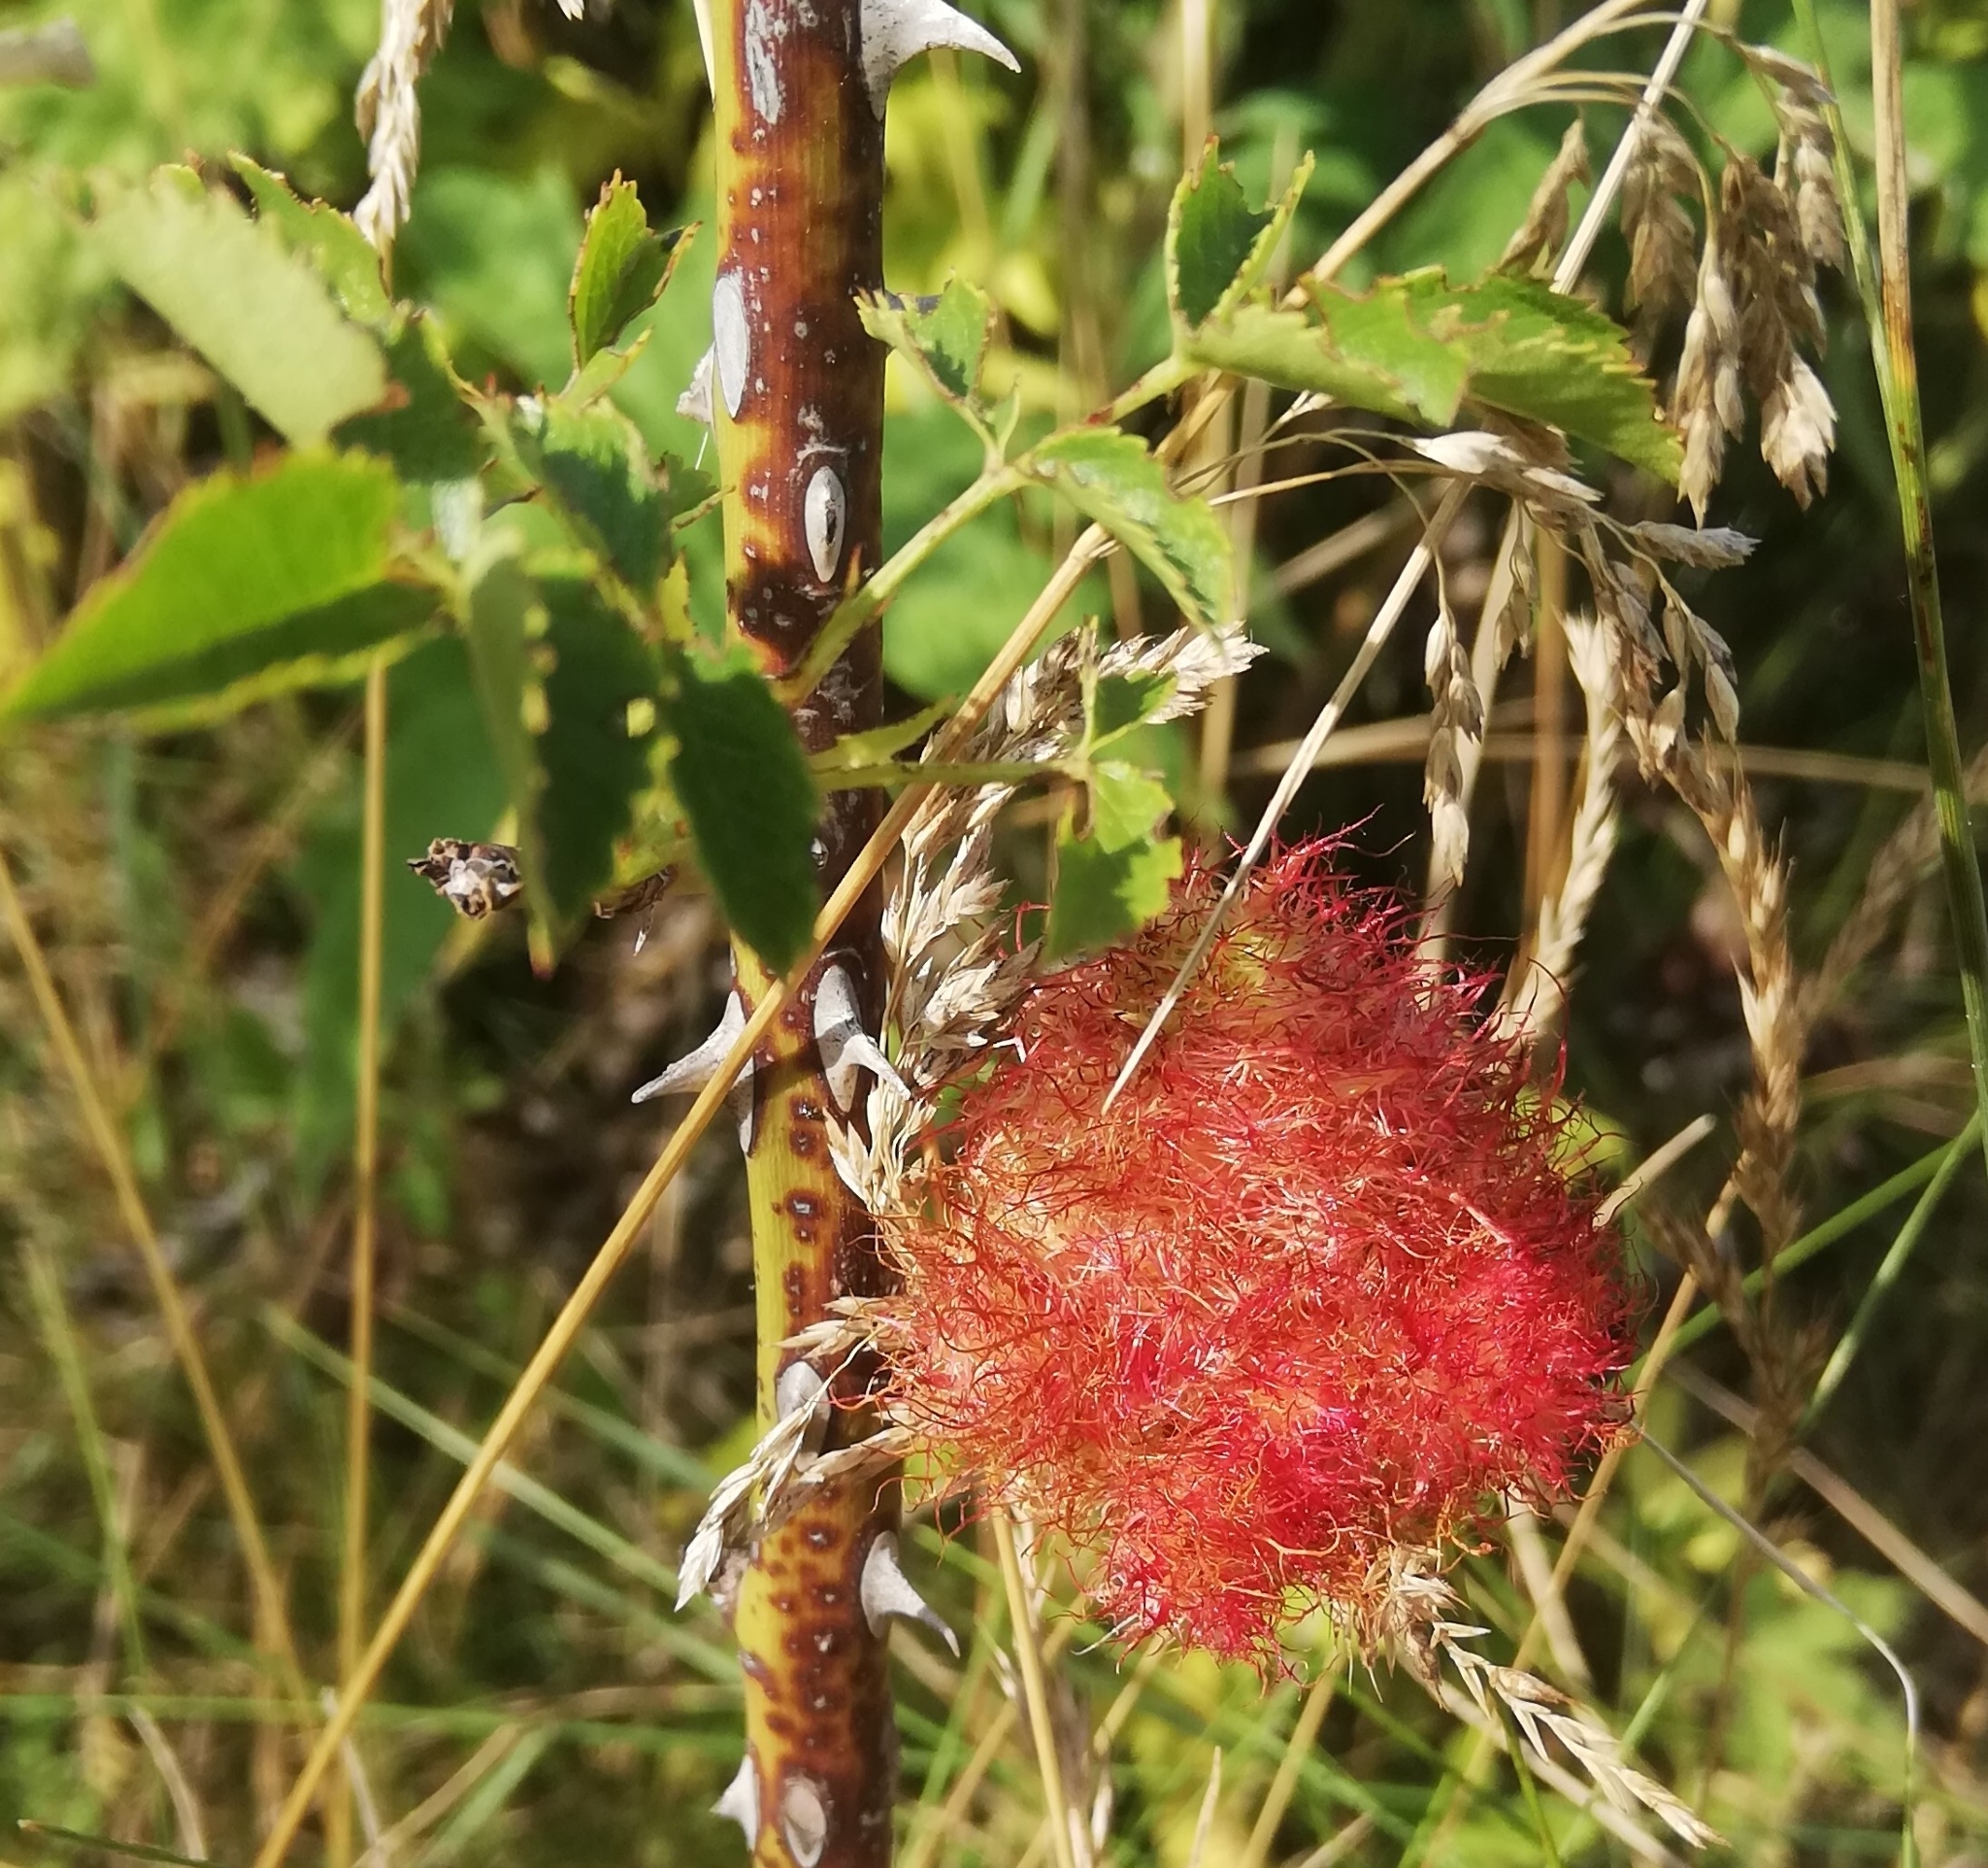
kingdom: Animalia
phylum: Arthropoda
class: Insecta
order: Hymenoptera
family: Cynipidae
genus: Diplolepis
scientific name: Diplolepis rosae
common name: Bedeguar gall
